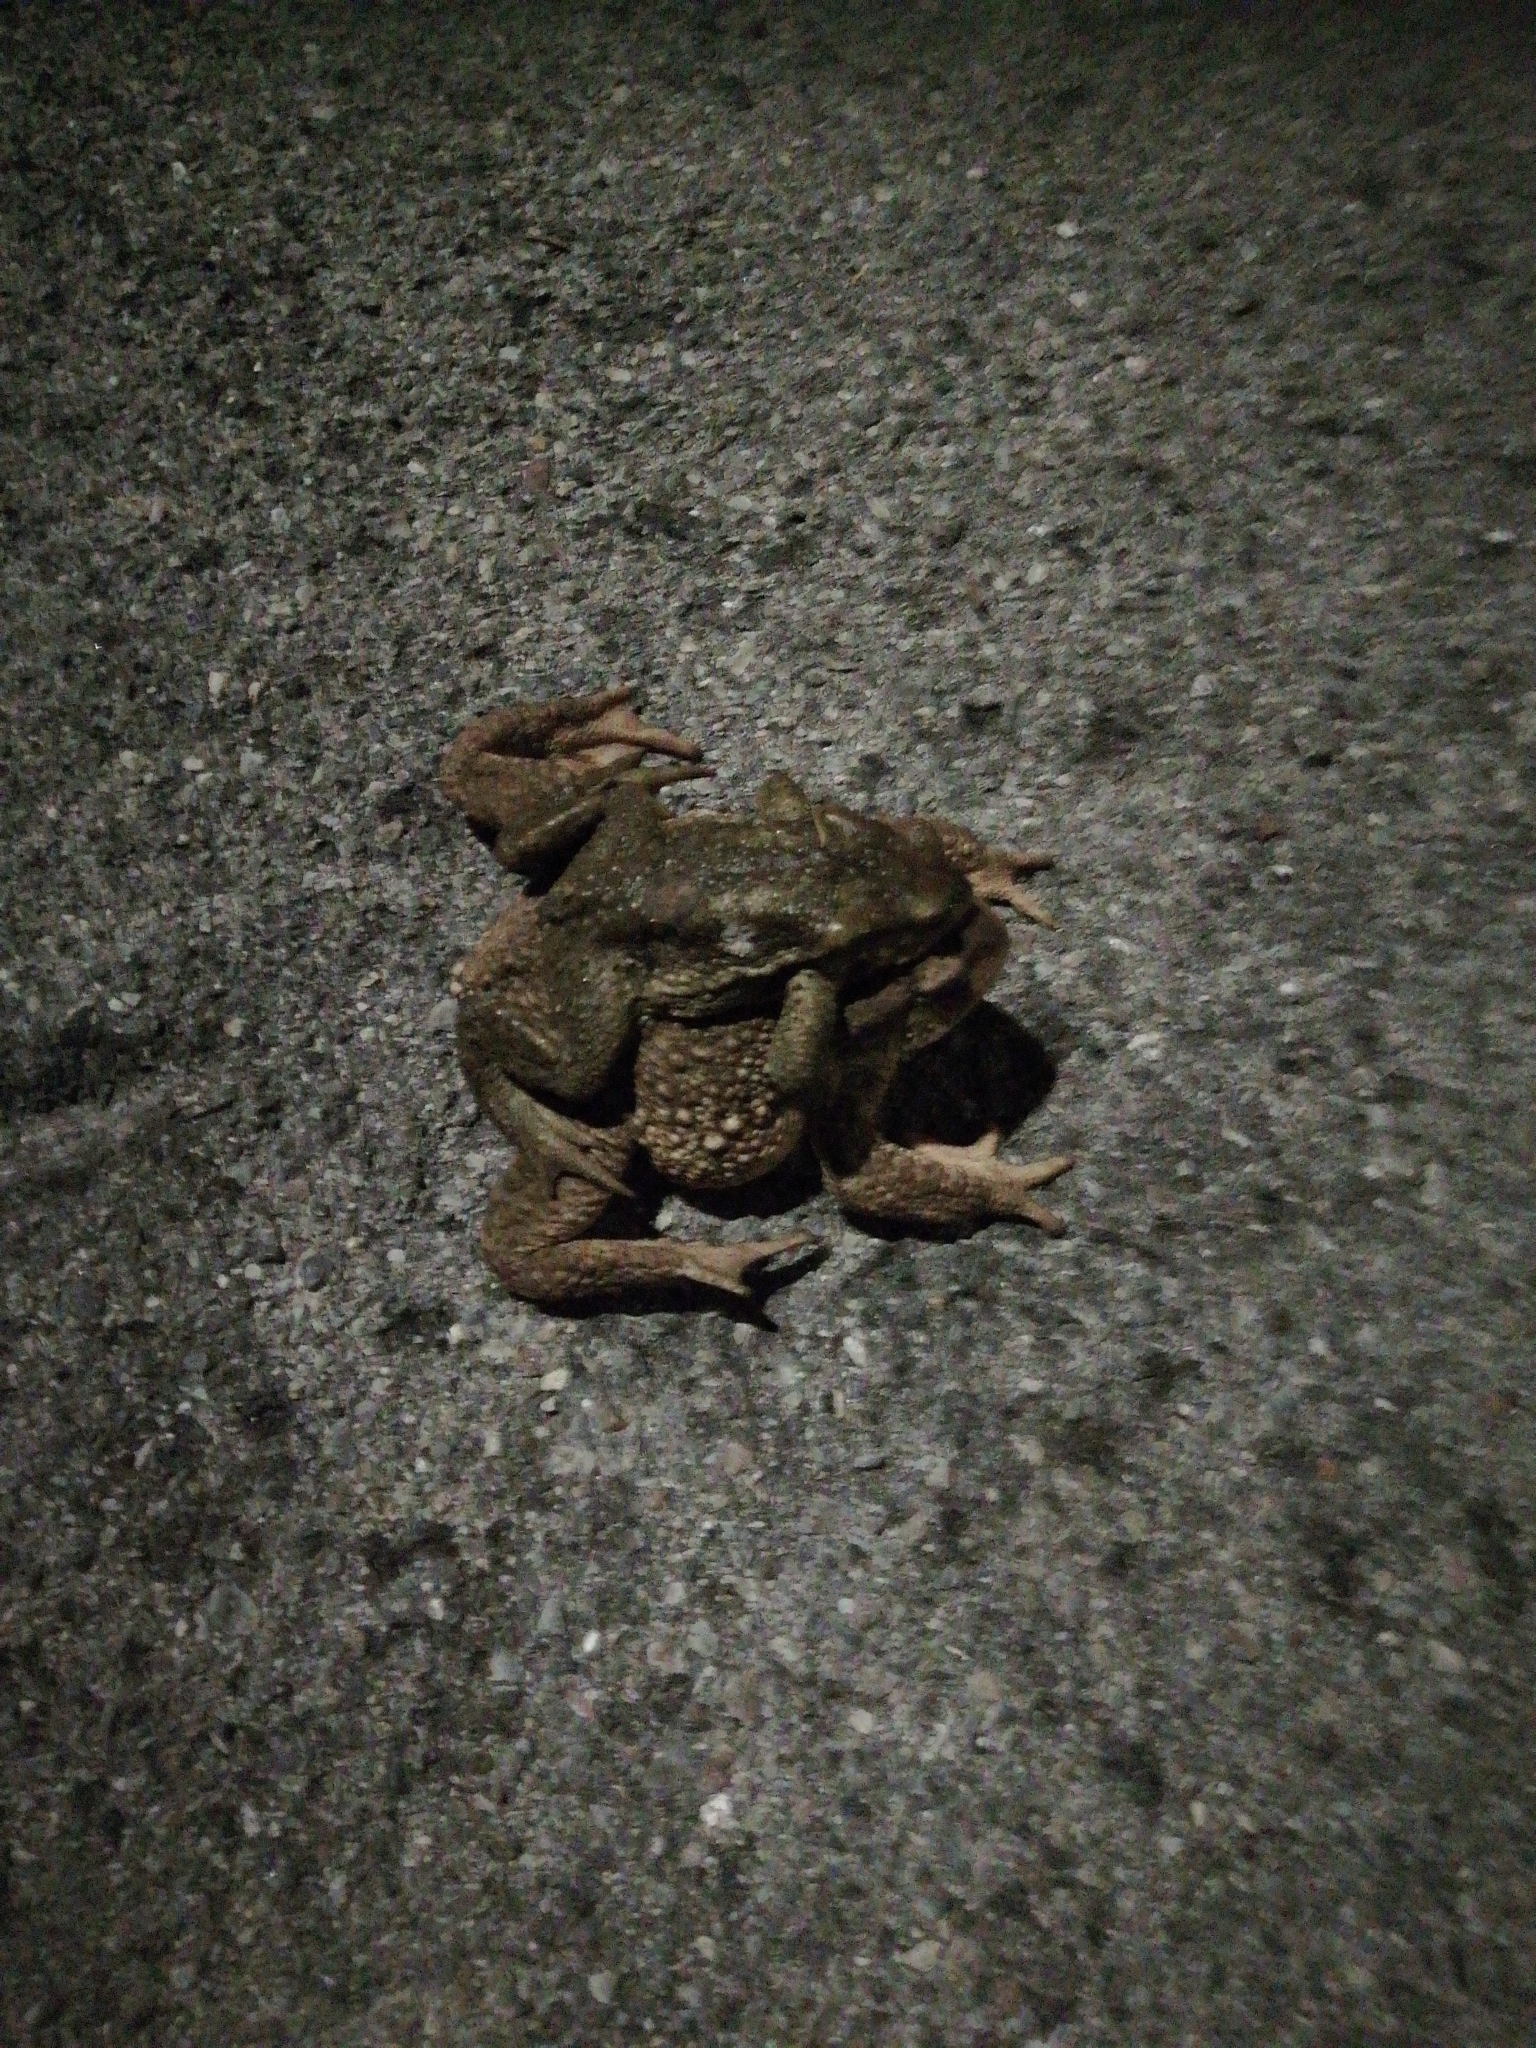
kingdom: Animalia
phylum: Chordata
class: Amphibia
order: Anura
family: Bufonidae
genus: Bufo
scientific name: Bufo spinosus
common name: Western common toad
